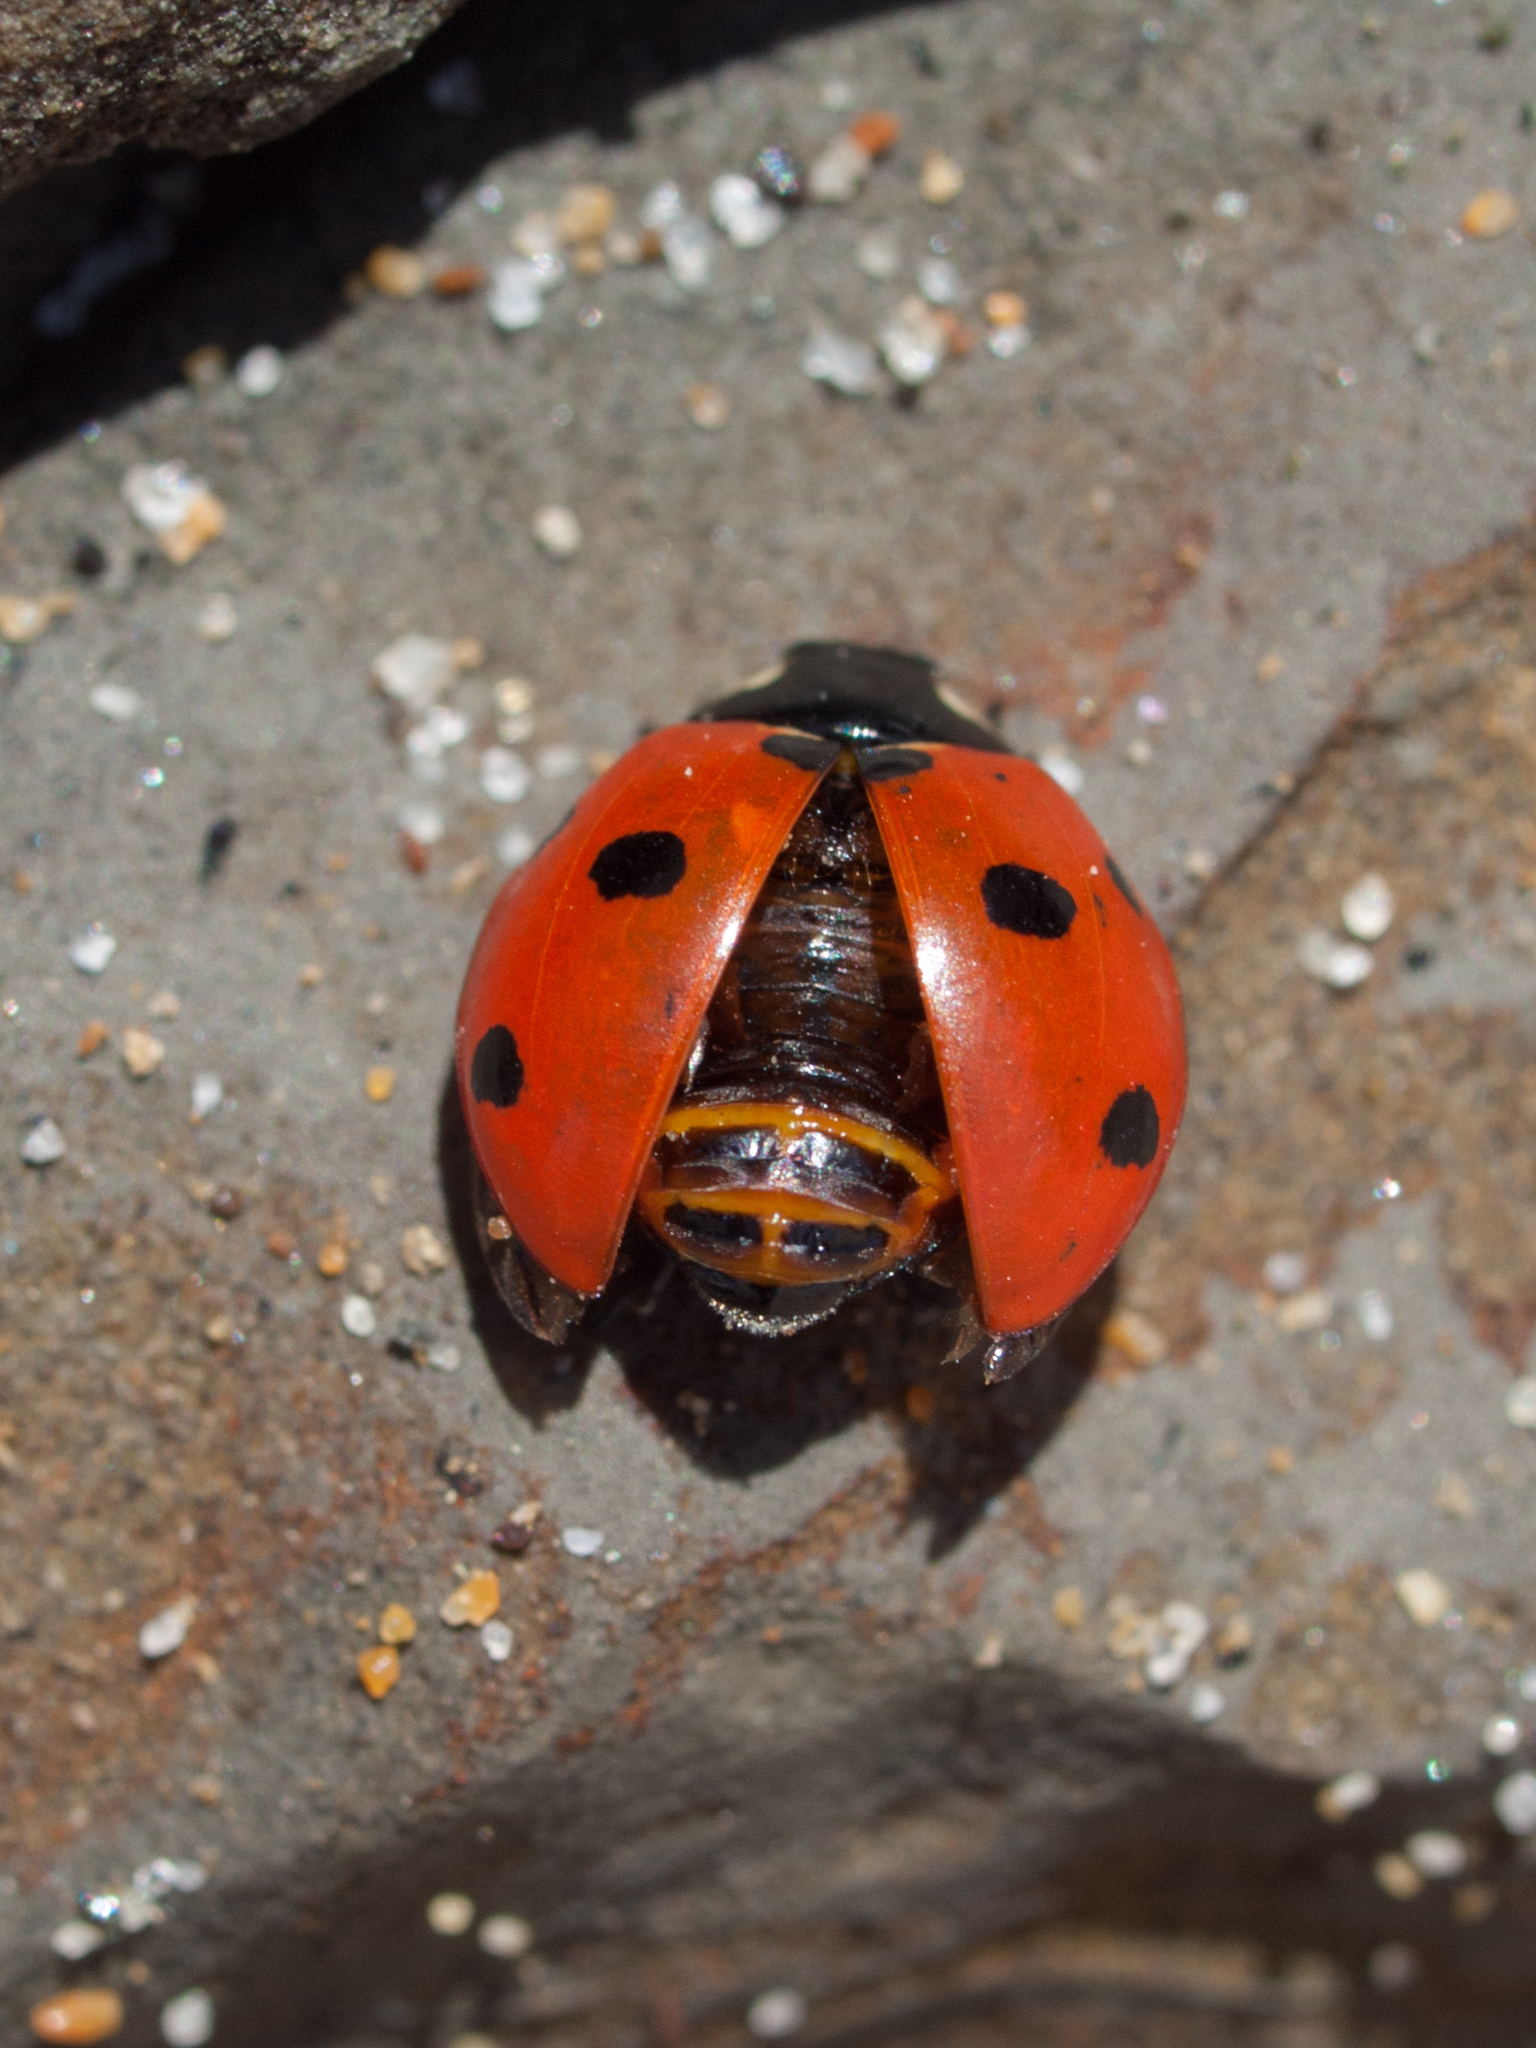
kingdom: Animalia
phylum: Arthropoda
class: Insecta
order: Coleoptera
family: Coccinellidae
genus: Coccinella
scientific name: Coccinella septempunctata
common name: Sevenspotted lady beetle
